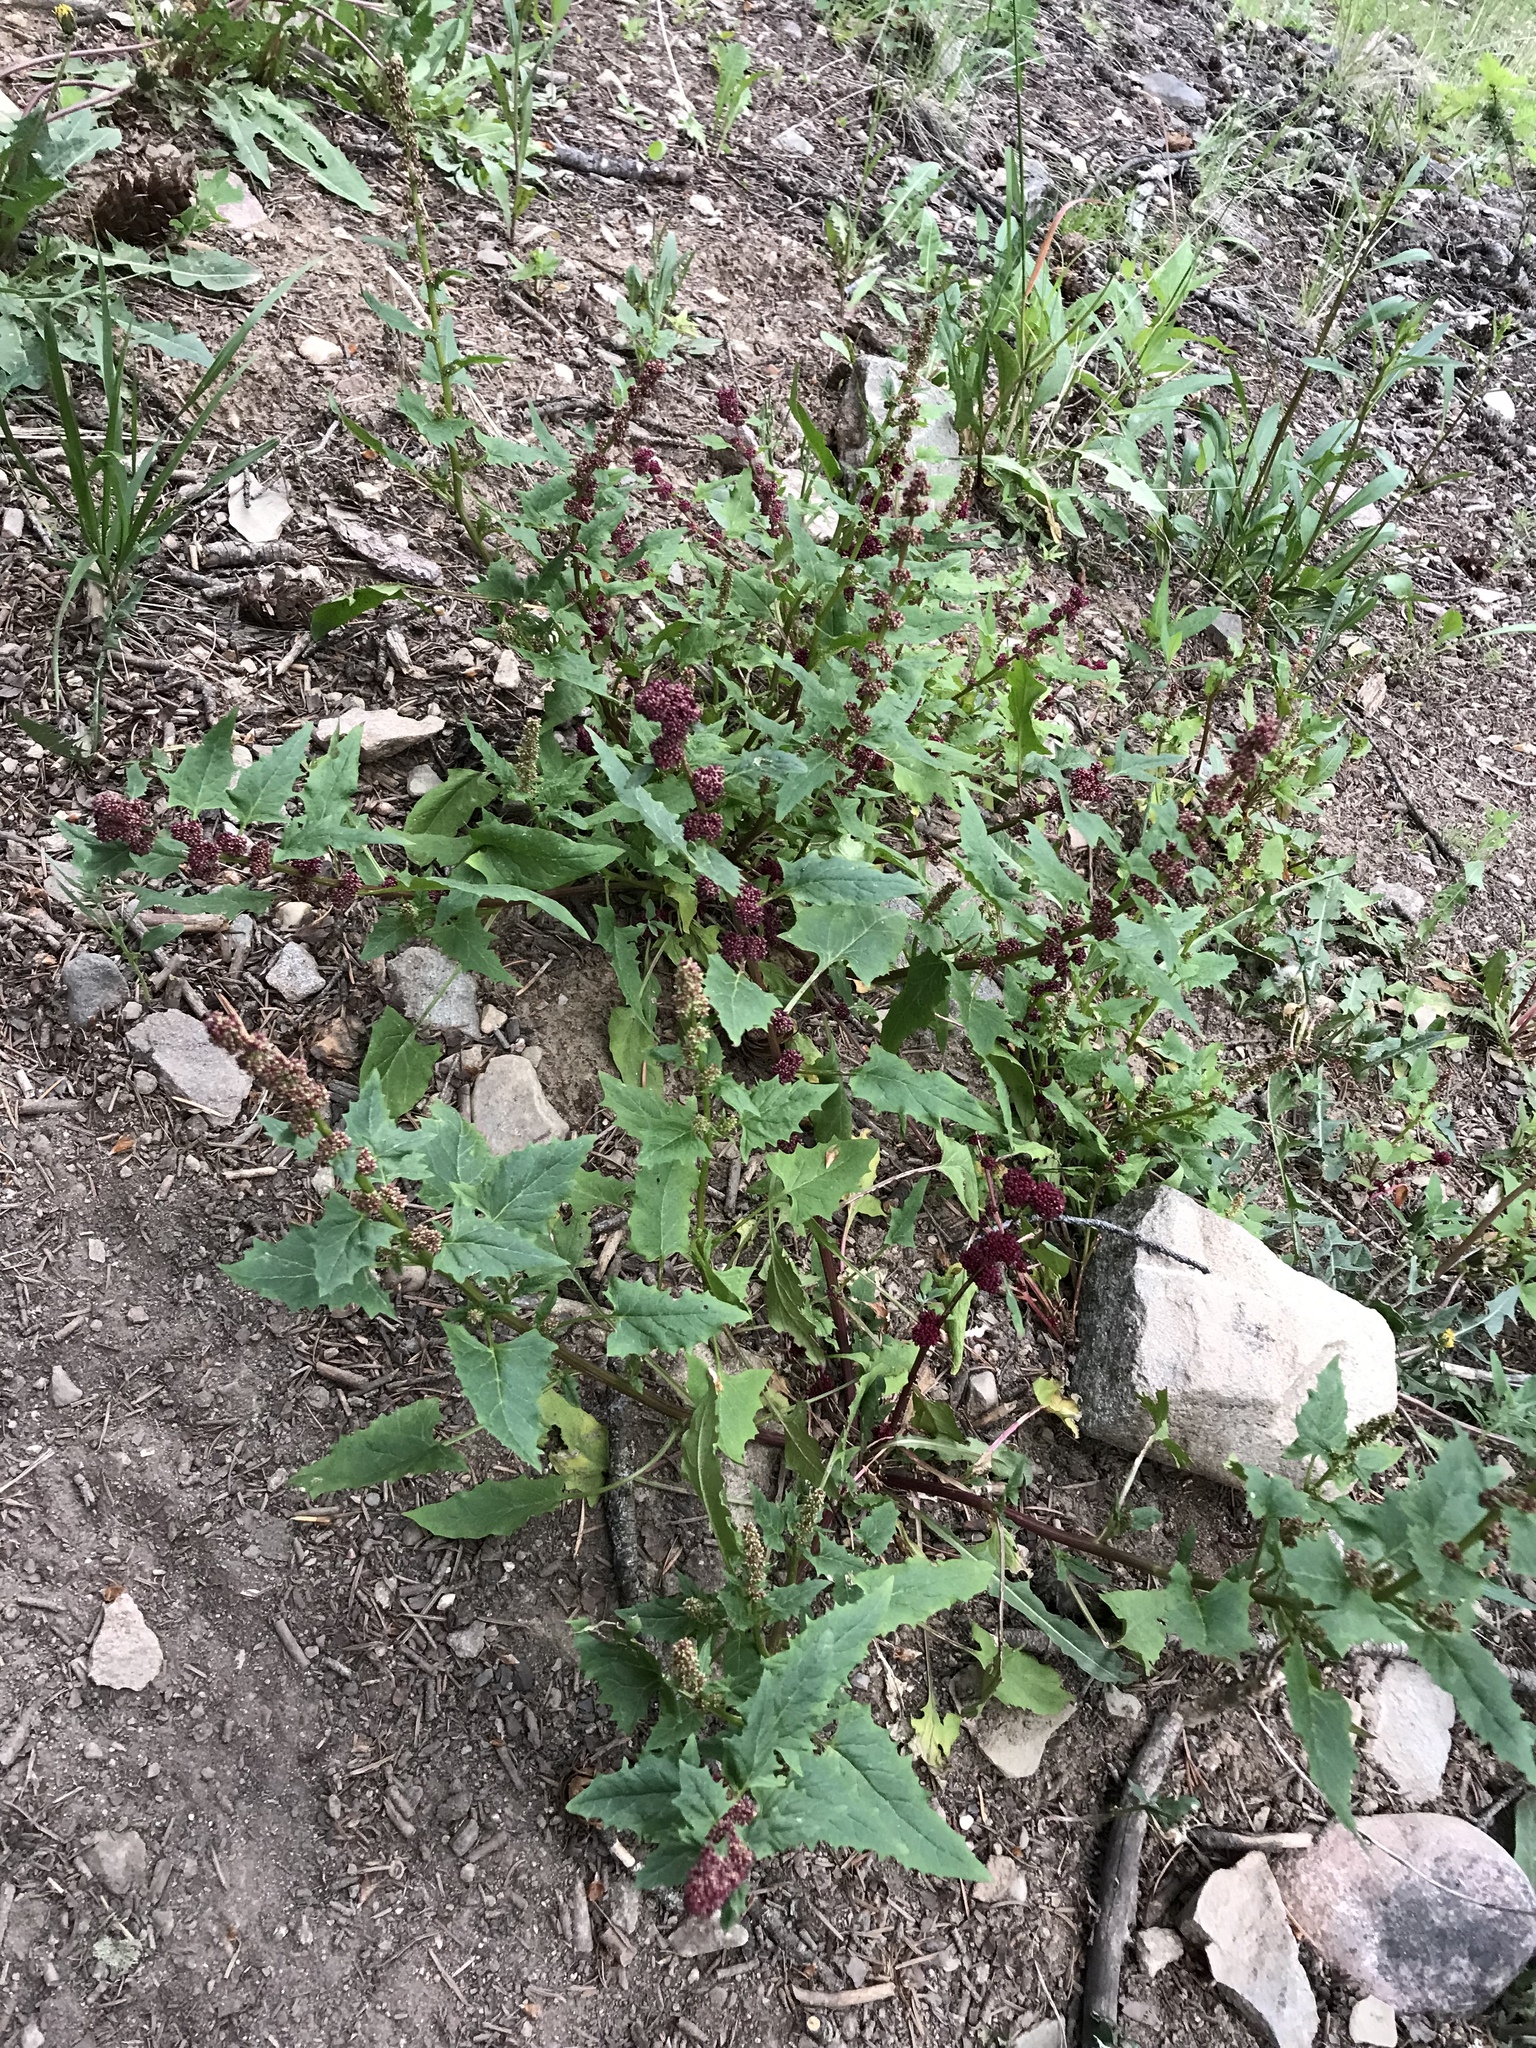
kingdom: Plantae
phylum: Tracheophyta
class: Magnoliopsida
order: Caryophyllales
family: Amaranthaceae
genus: Blitum
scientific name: Blitum capitatum
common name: Strawberry-blight
